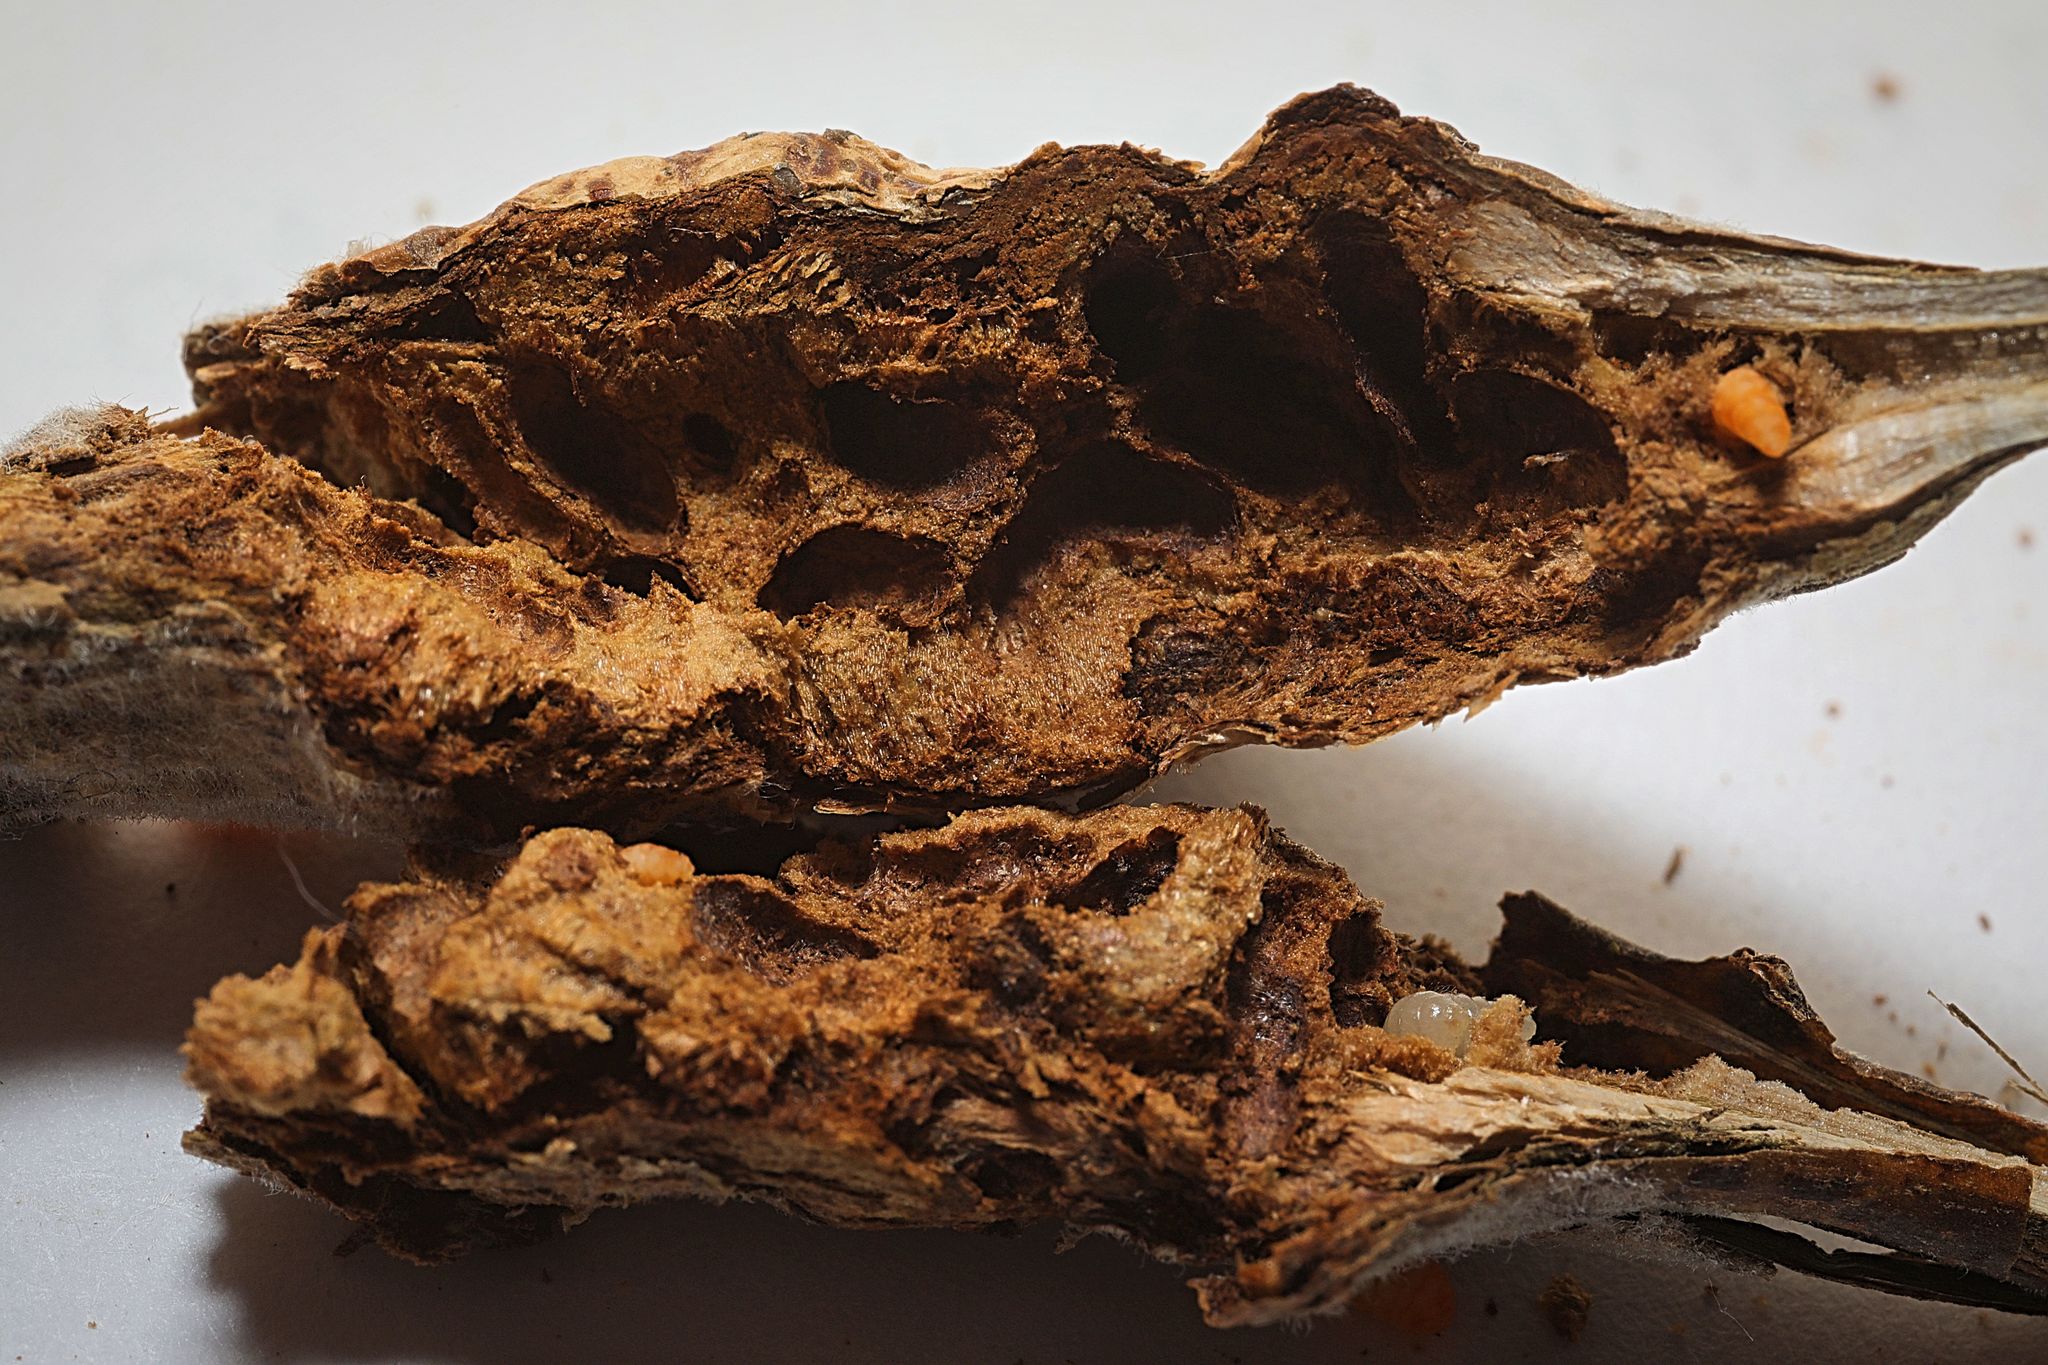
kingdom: Animalia
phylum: Arthropoda
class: Insecta
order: Diptera
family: Cecidomyiidae
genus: Rabdophaga
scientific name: Rabdophaga salicis
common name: Willow twig gall midge
